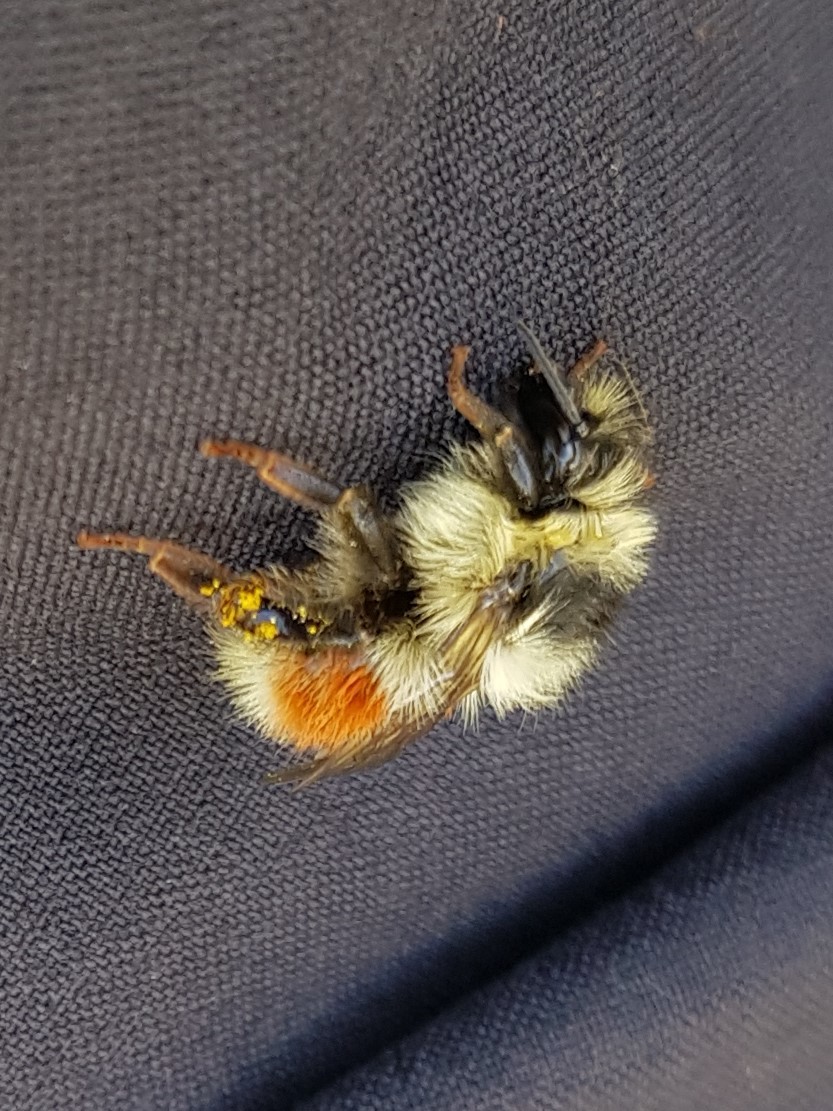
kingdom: Animalia
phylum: Arthropoda
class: Insecta
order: Hymenoptera
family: Apidae
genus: Bombus
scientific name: Bombus sylvicola
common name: Forest bumble bee
